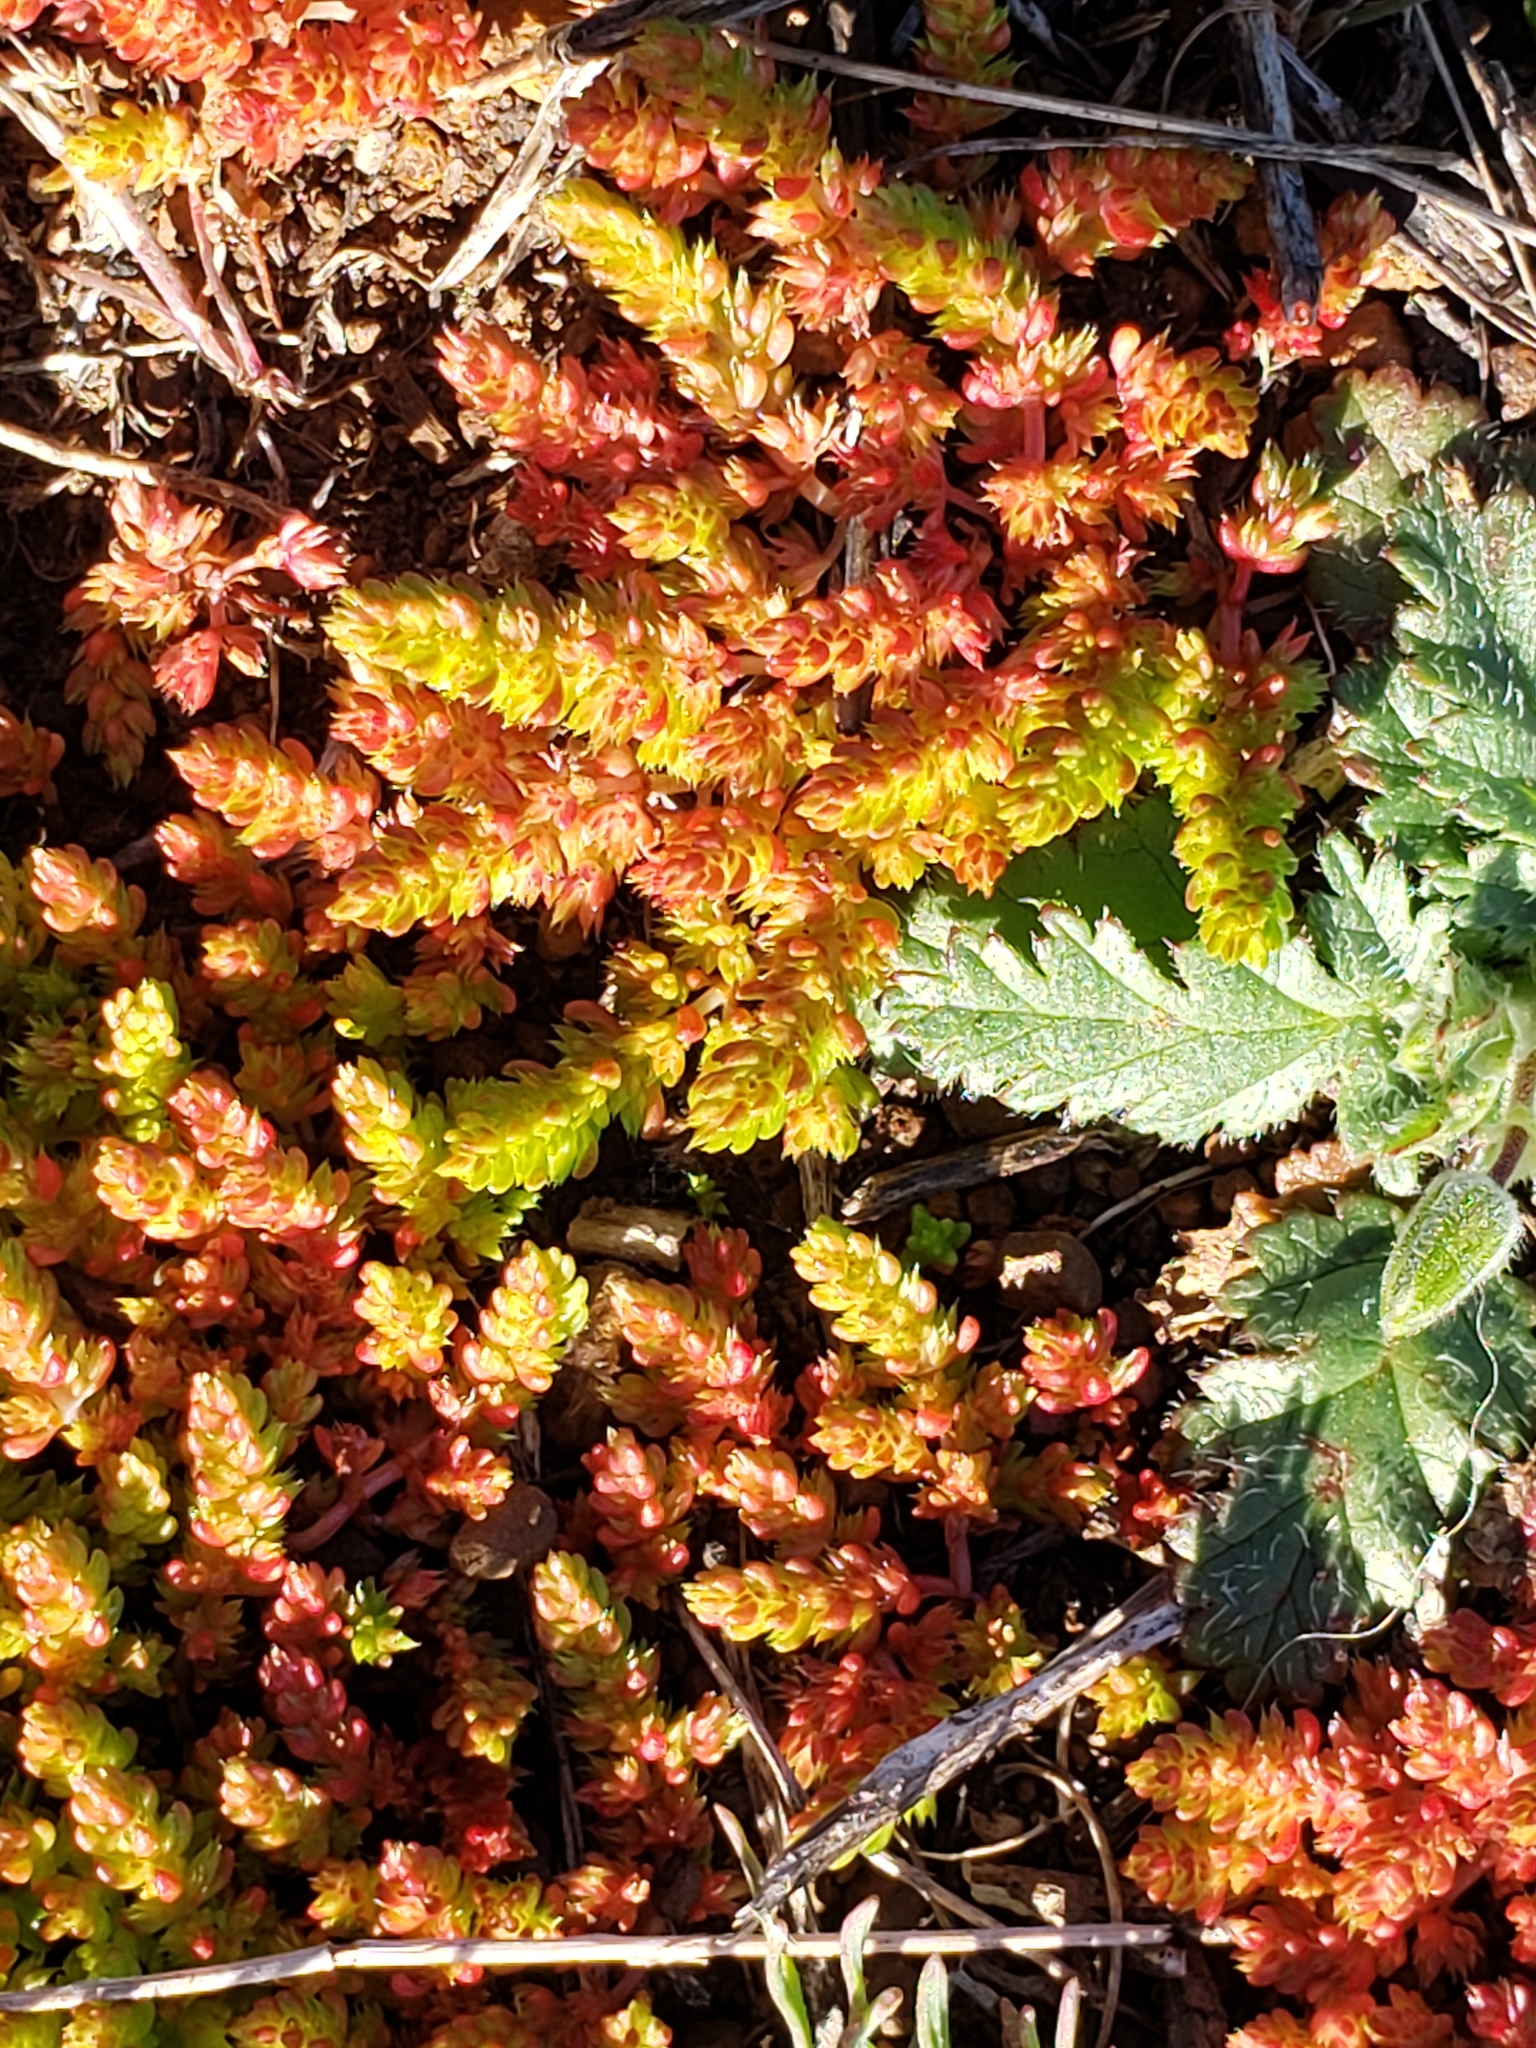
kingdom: Plantae
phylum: Tracheophyta
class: Magnoliopsida
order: Saxifragales
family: Crassulaceae
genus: Crassula
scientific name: Crassula connata
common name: Erect pygmyweed
